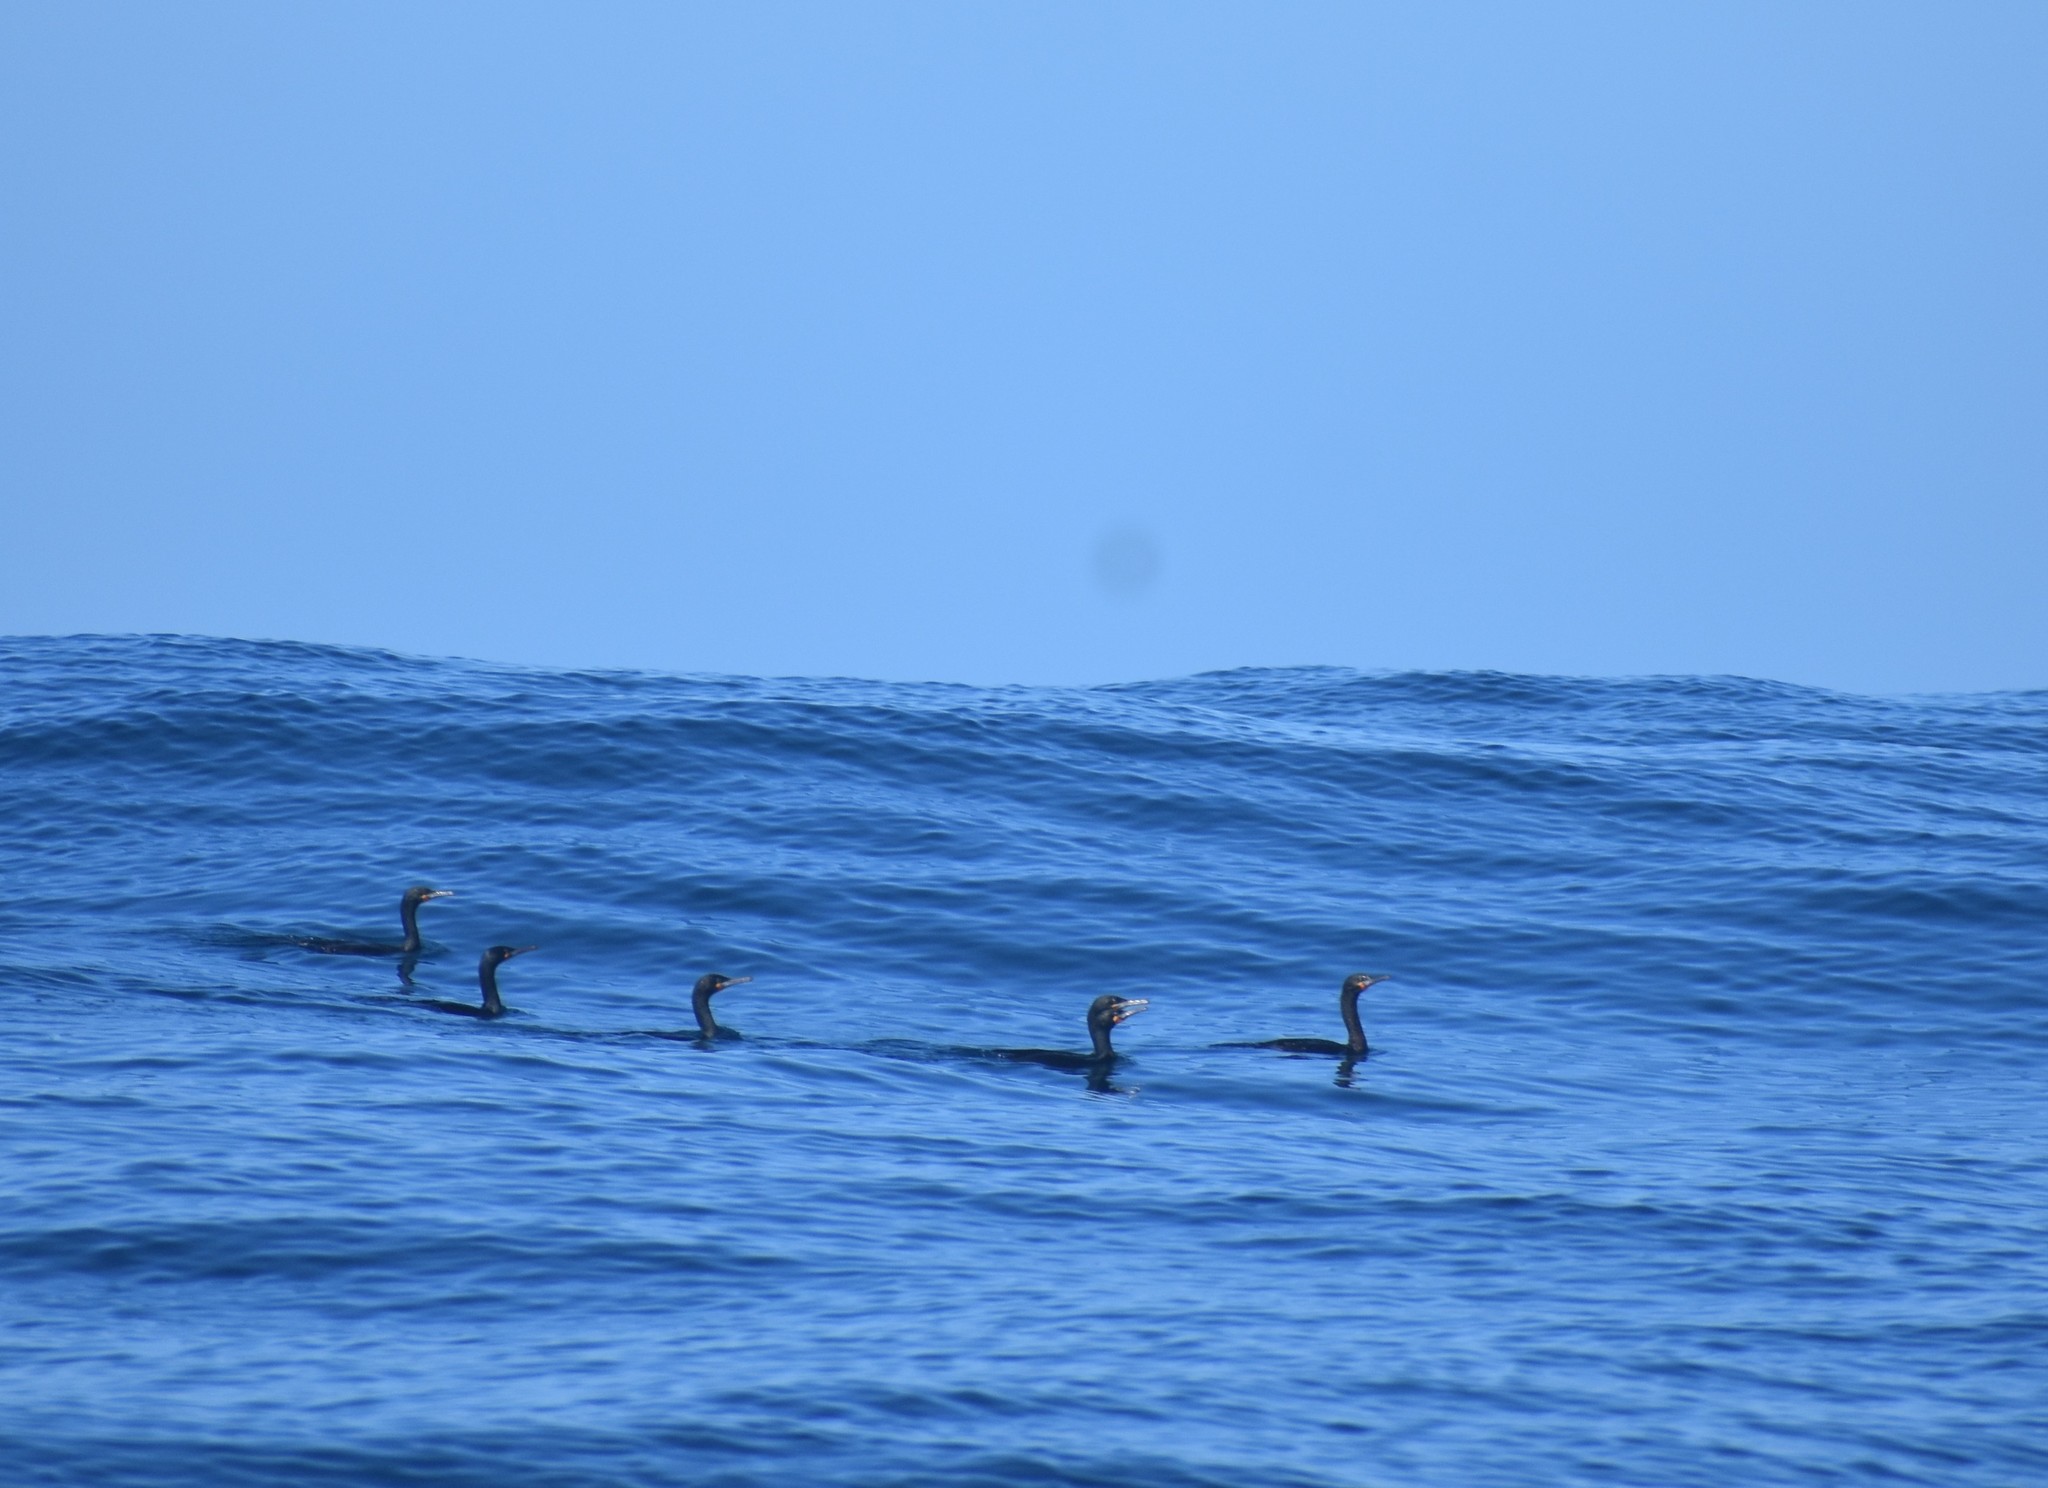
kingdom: Animalia
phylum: Chordata
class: Aves
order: Suliformes
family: Phalacrocoracidae
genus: Phalacrocorax
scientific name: Phalacrocorax capensis
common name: Cape cormorant
